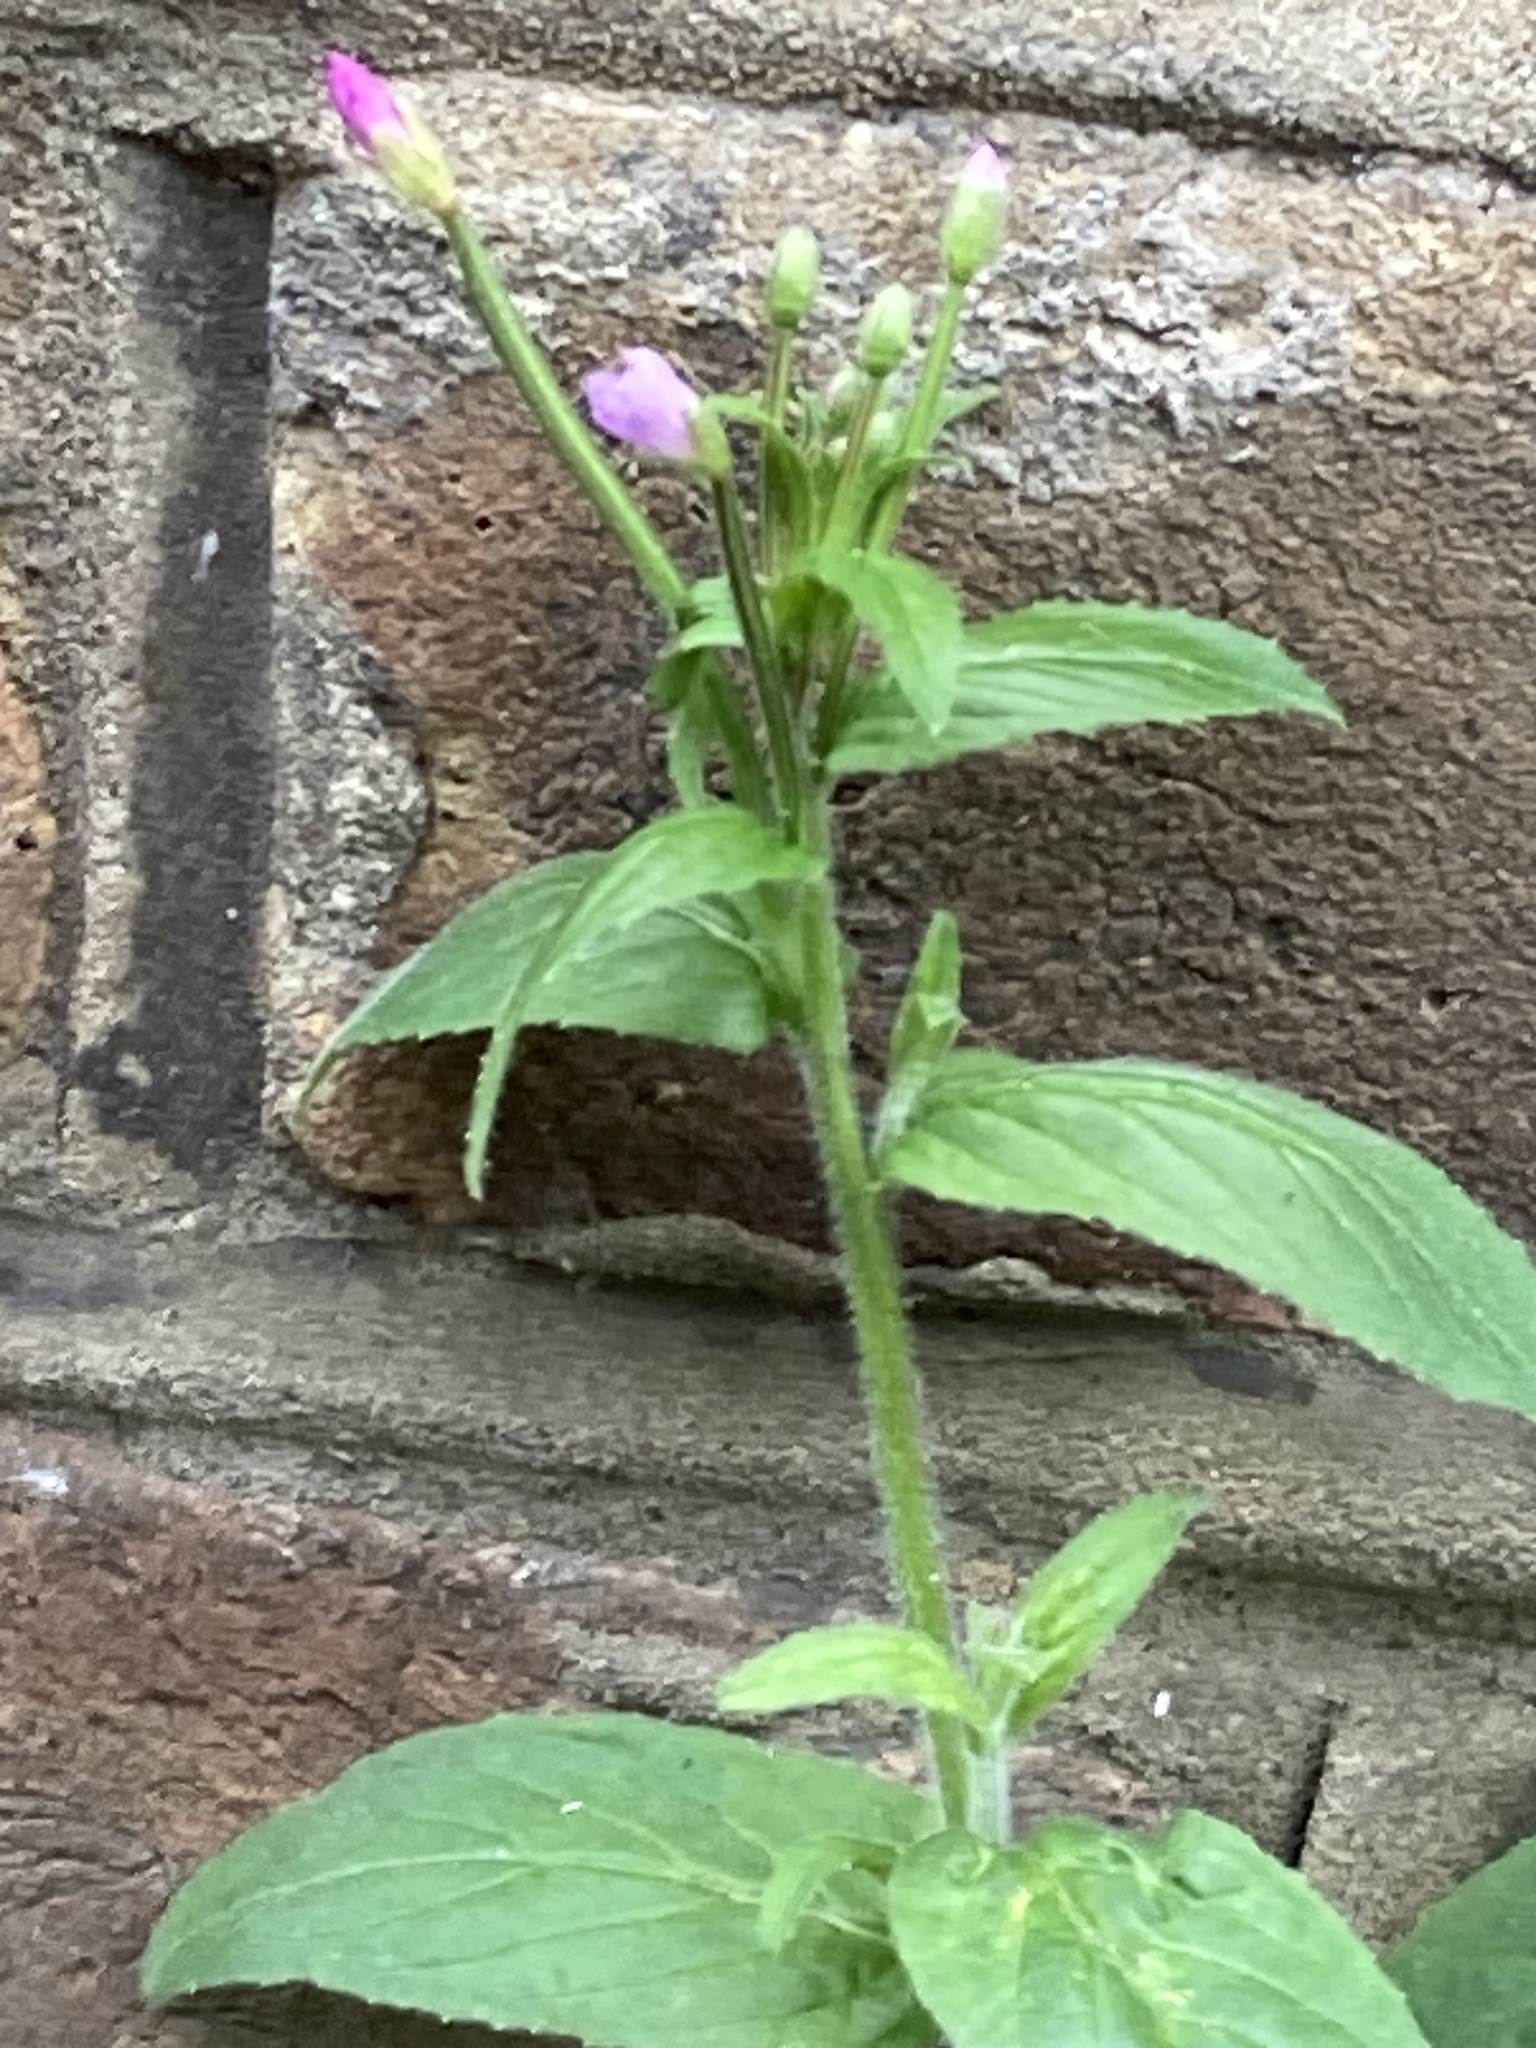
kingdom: Plantae
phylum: Tracheophyta
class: Magnoliopsida
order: Myrtales
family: Onagraceae
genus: Epilobium
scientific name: Epilobium parviflorum
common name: Hoary willowherb
